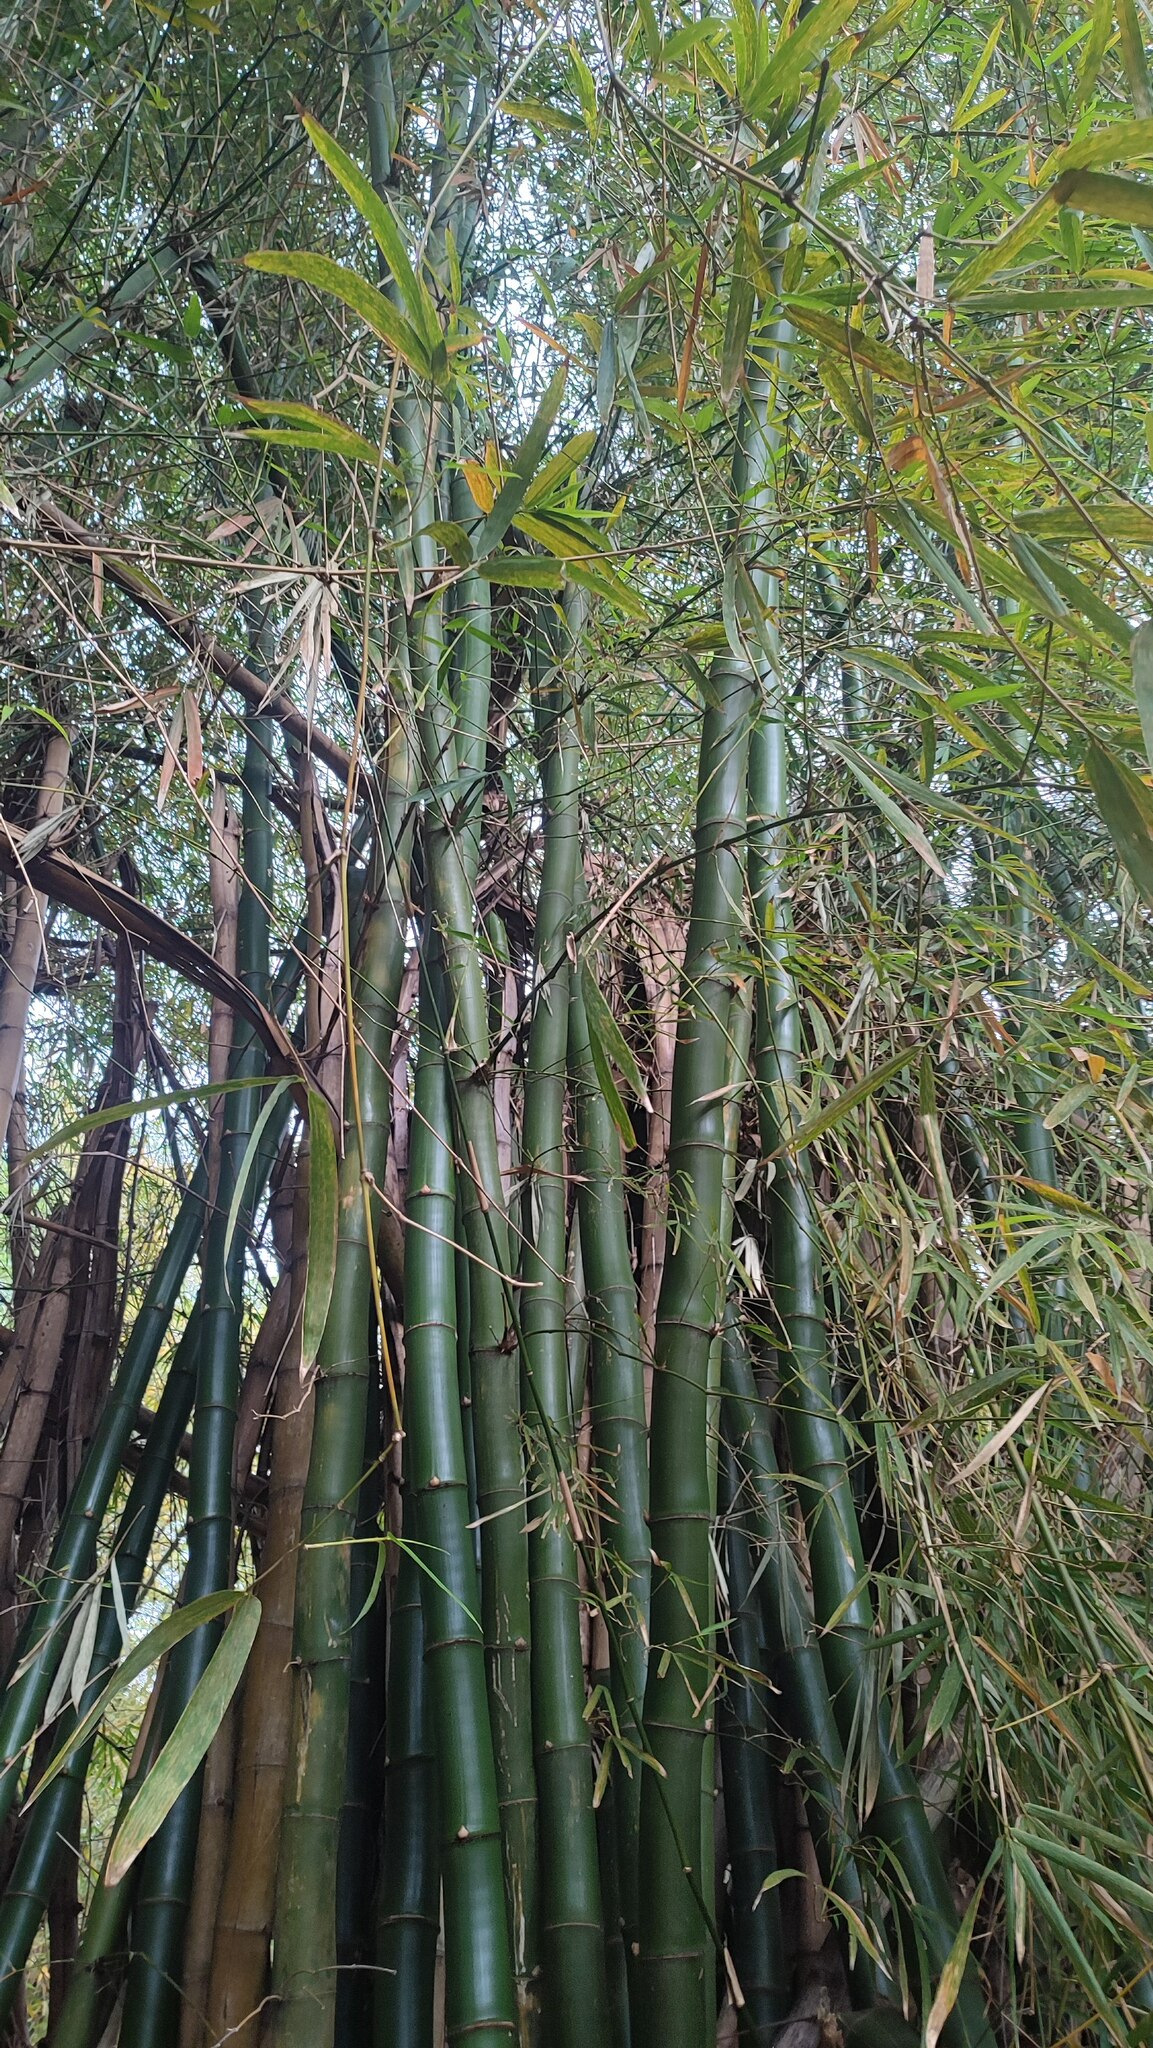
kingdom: Plantae
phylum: Tracheophyta
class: Liliopsida
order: Poales
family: Poaceae
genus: Bambusa
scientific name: Bambusa vulgaris
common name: Common bamboo
